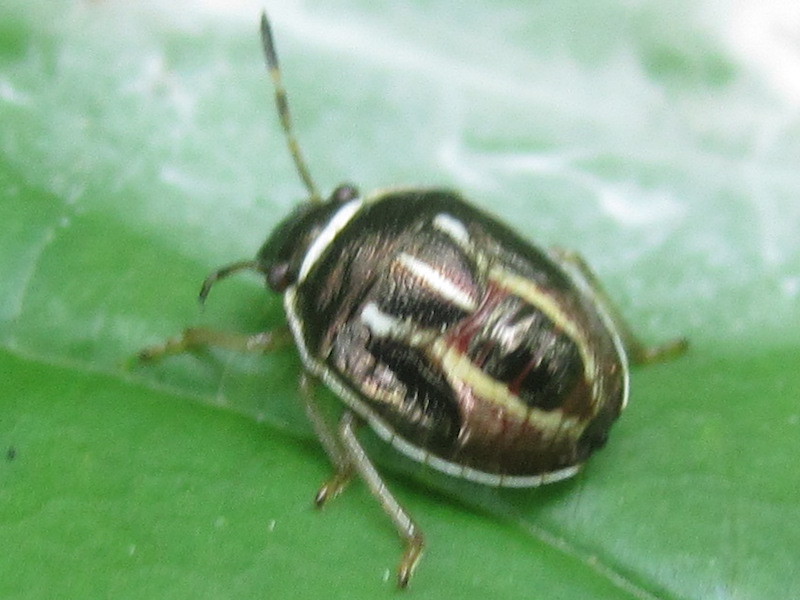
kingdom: Animalia
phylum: Arthropoda
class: Insecta
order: Hemiptera
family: Pentatomidae
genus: Mormidea
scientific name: Mormidea lugens
